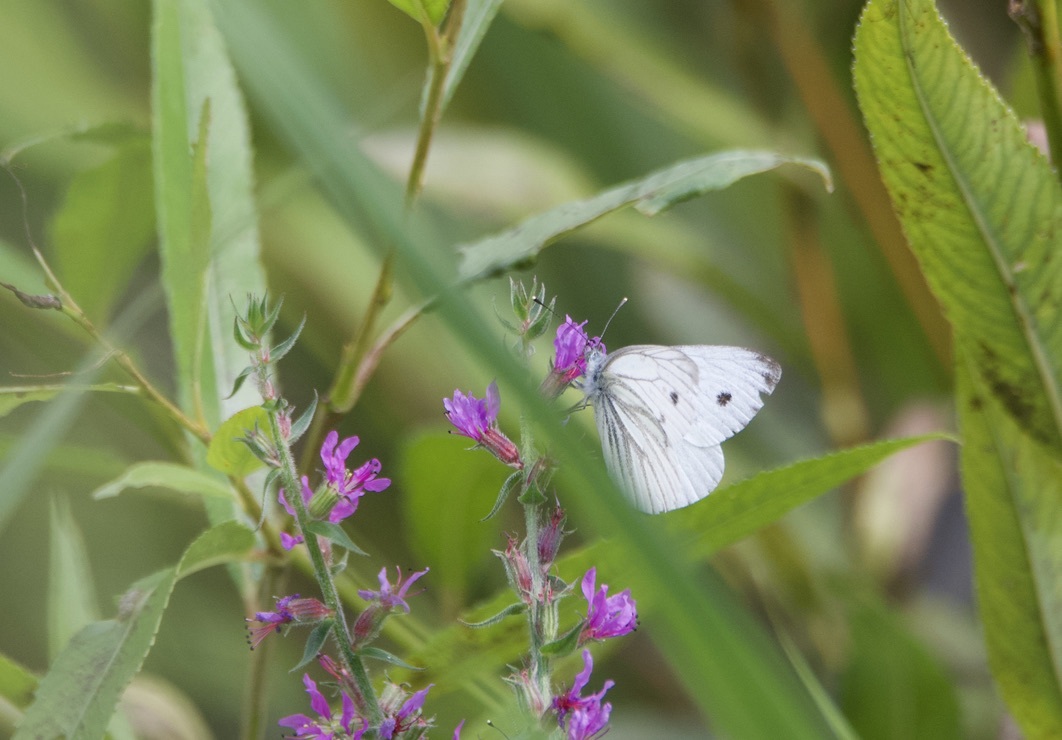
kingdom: Animalia
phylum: Arthropoda
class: Insecta
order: Lepidoptera
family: Pieridae
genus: Pieris
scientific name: Pieris napi
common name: Green-veined white
